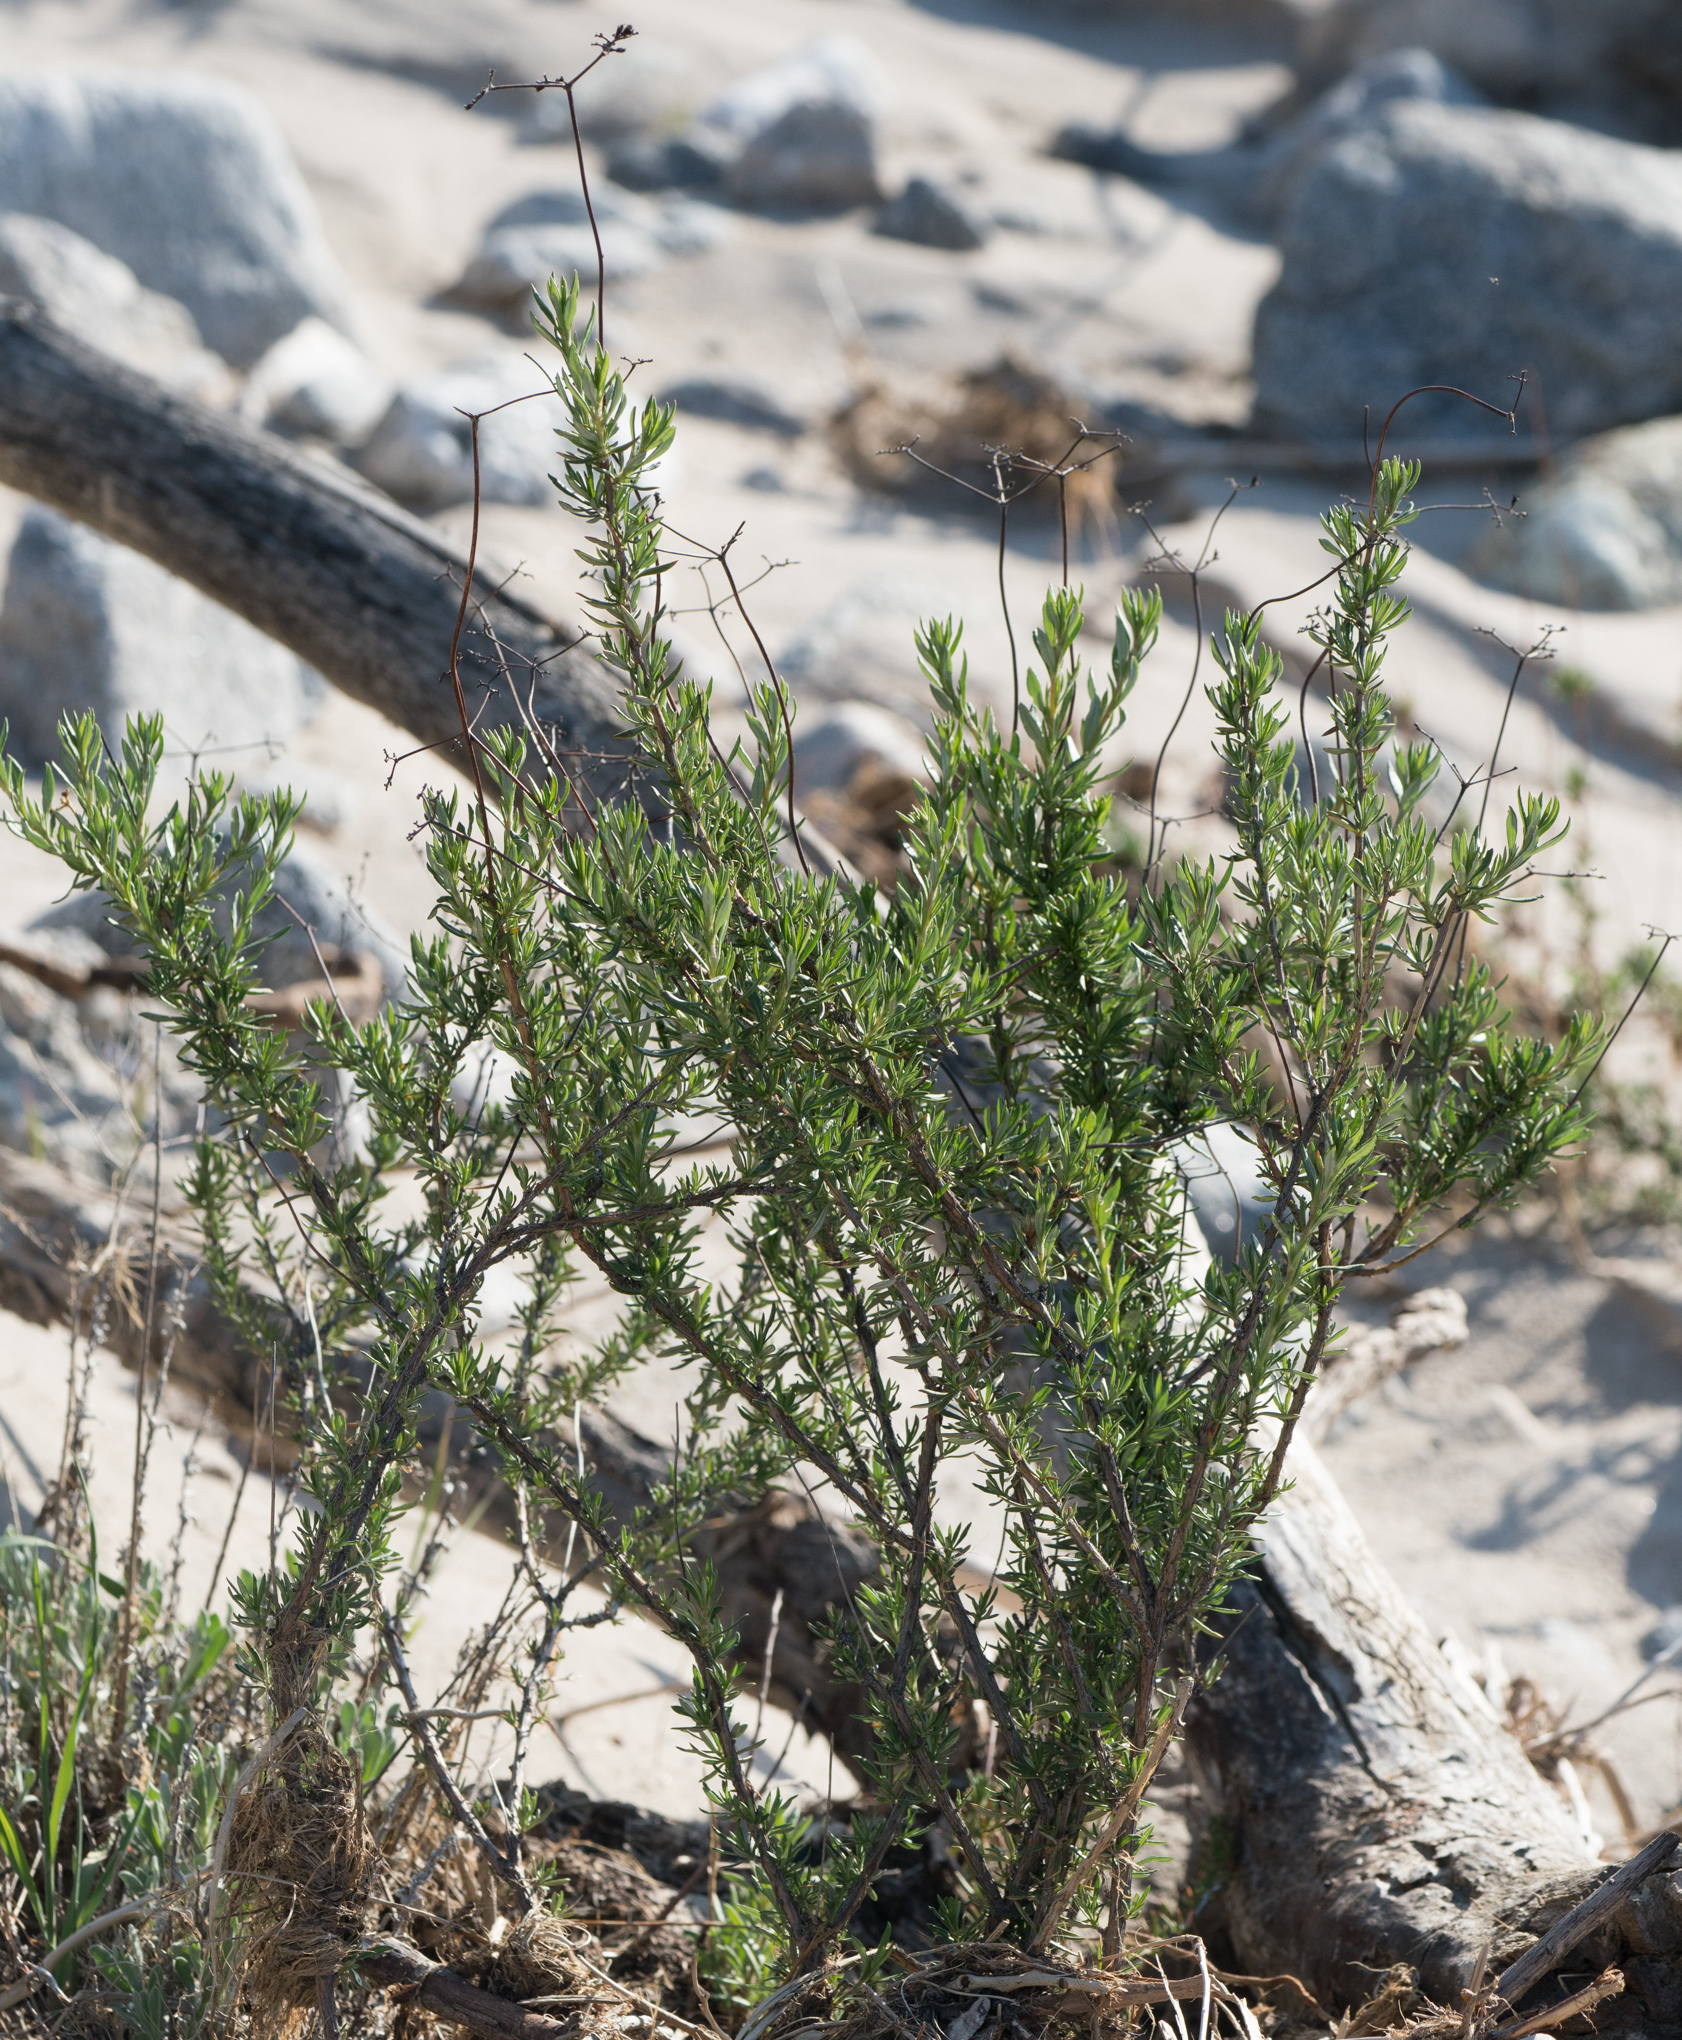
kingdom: Plantae
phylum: Tracheophyta
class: Magnoliopsida
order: Caryophyllales
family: Polygonaceae
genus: Eriogonum
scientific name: Eriogonum fasciculatum
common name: California wild buckwheat
